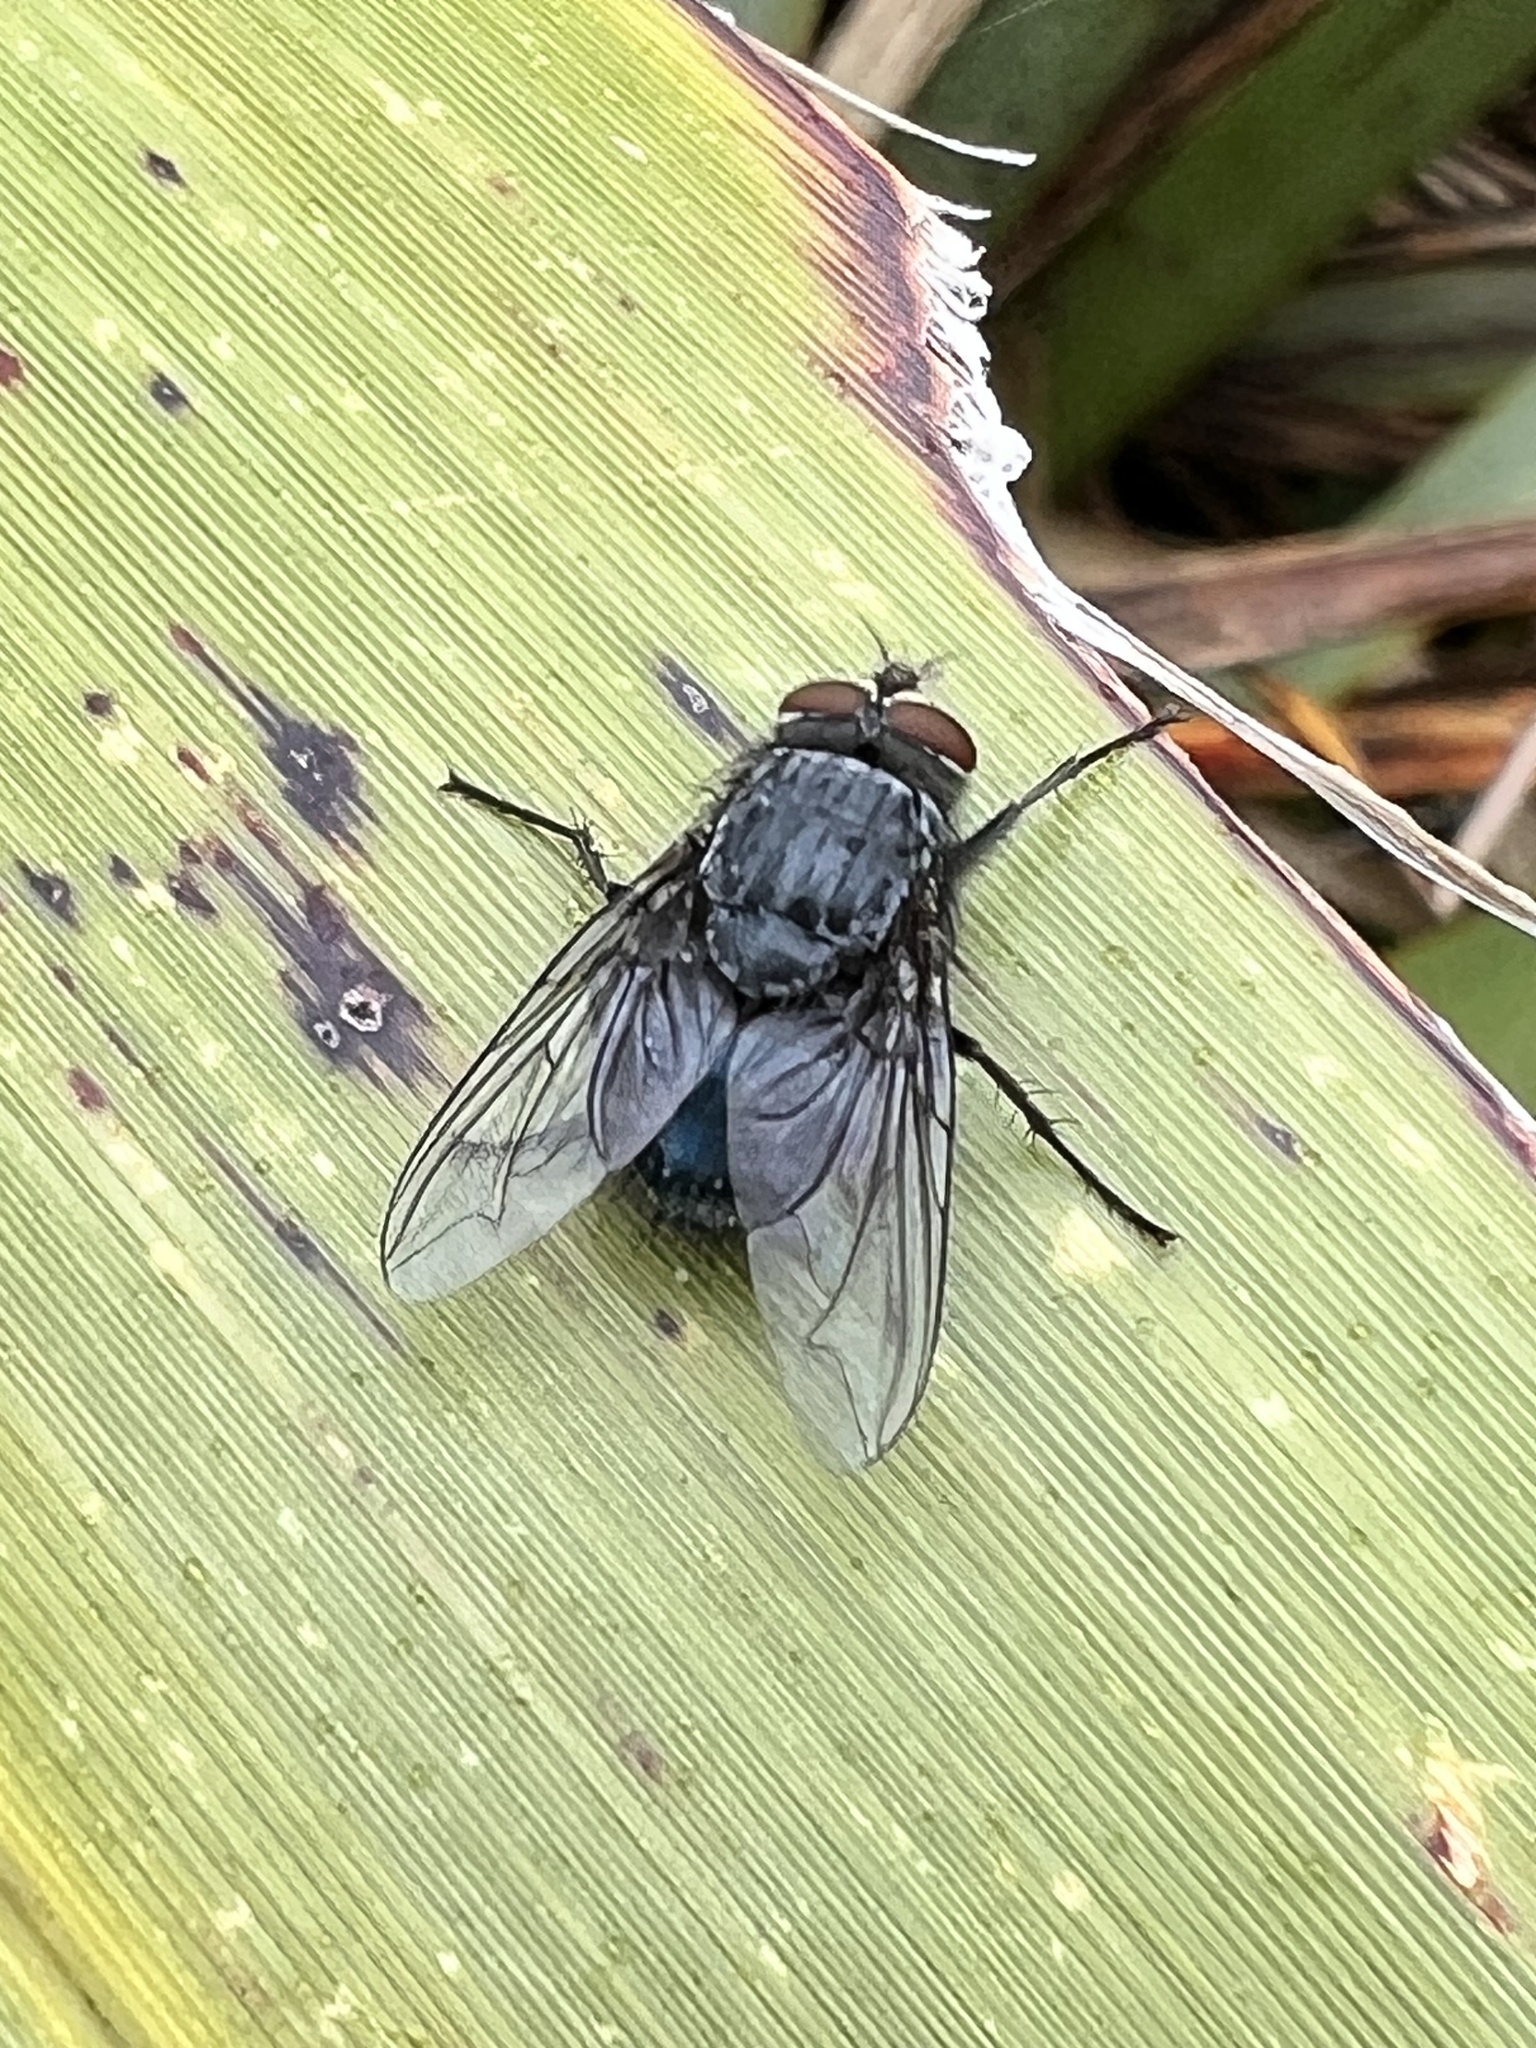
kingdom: Animalia
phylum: Arthropoda
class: Insecta
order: Diptera
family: Calliphoridae
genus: Calliphora
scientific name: Calliphora vicina
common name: Common blow flie
